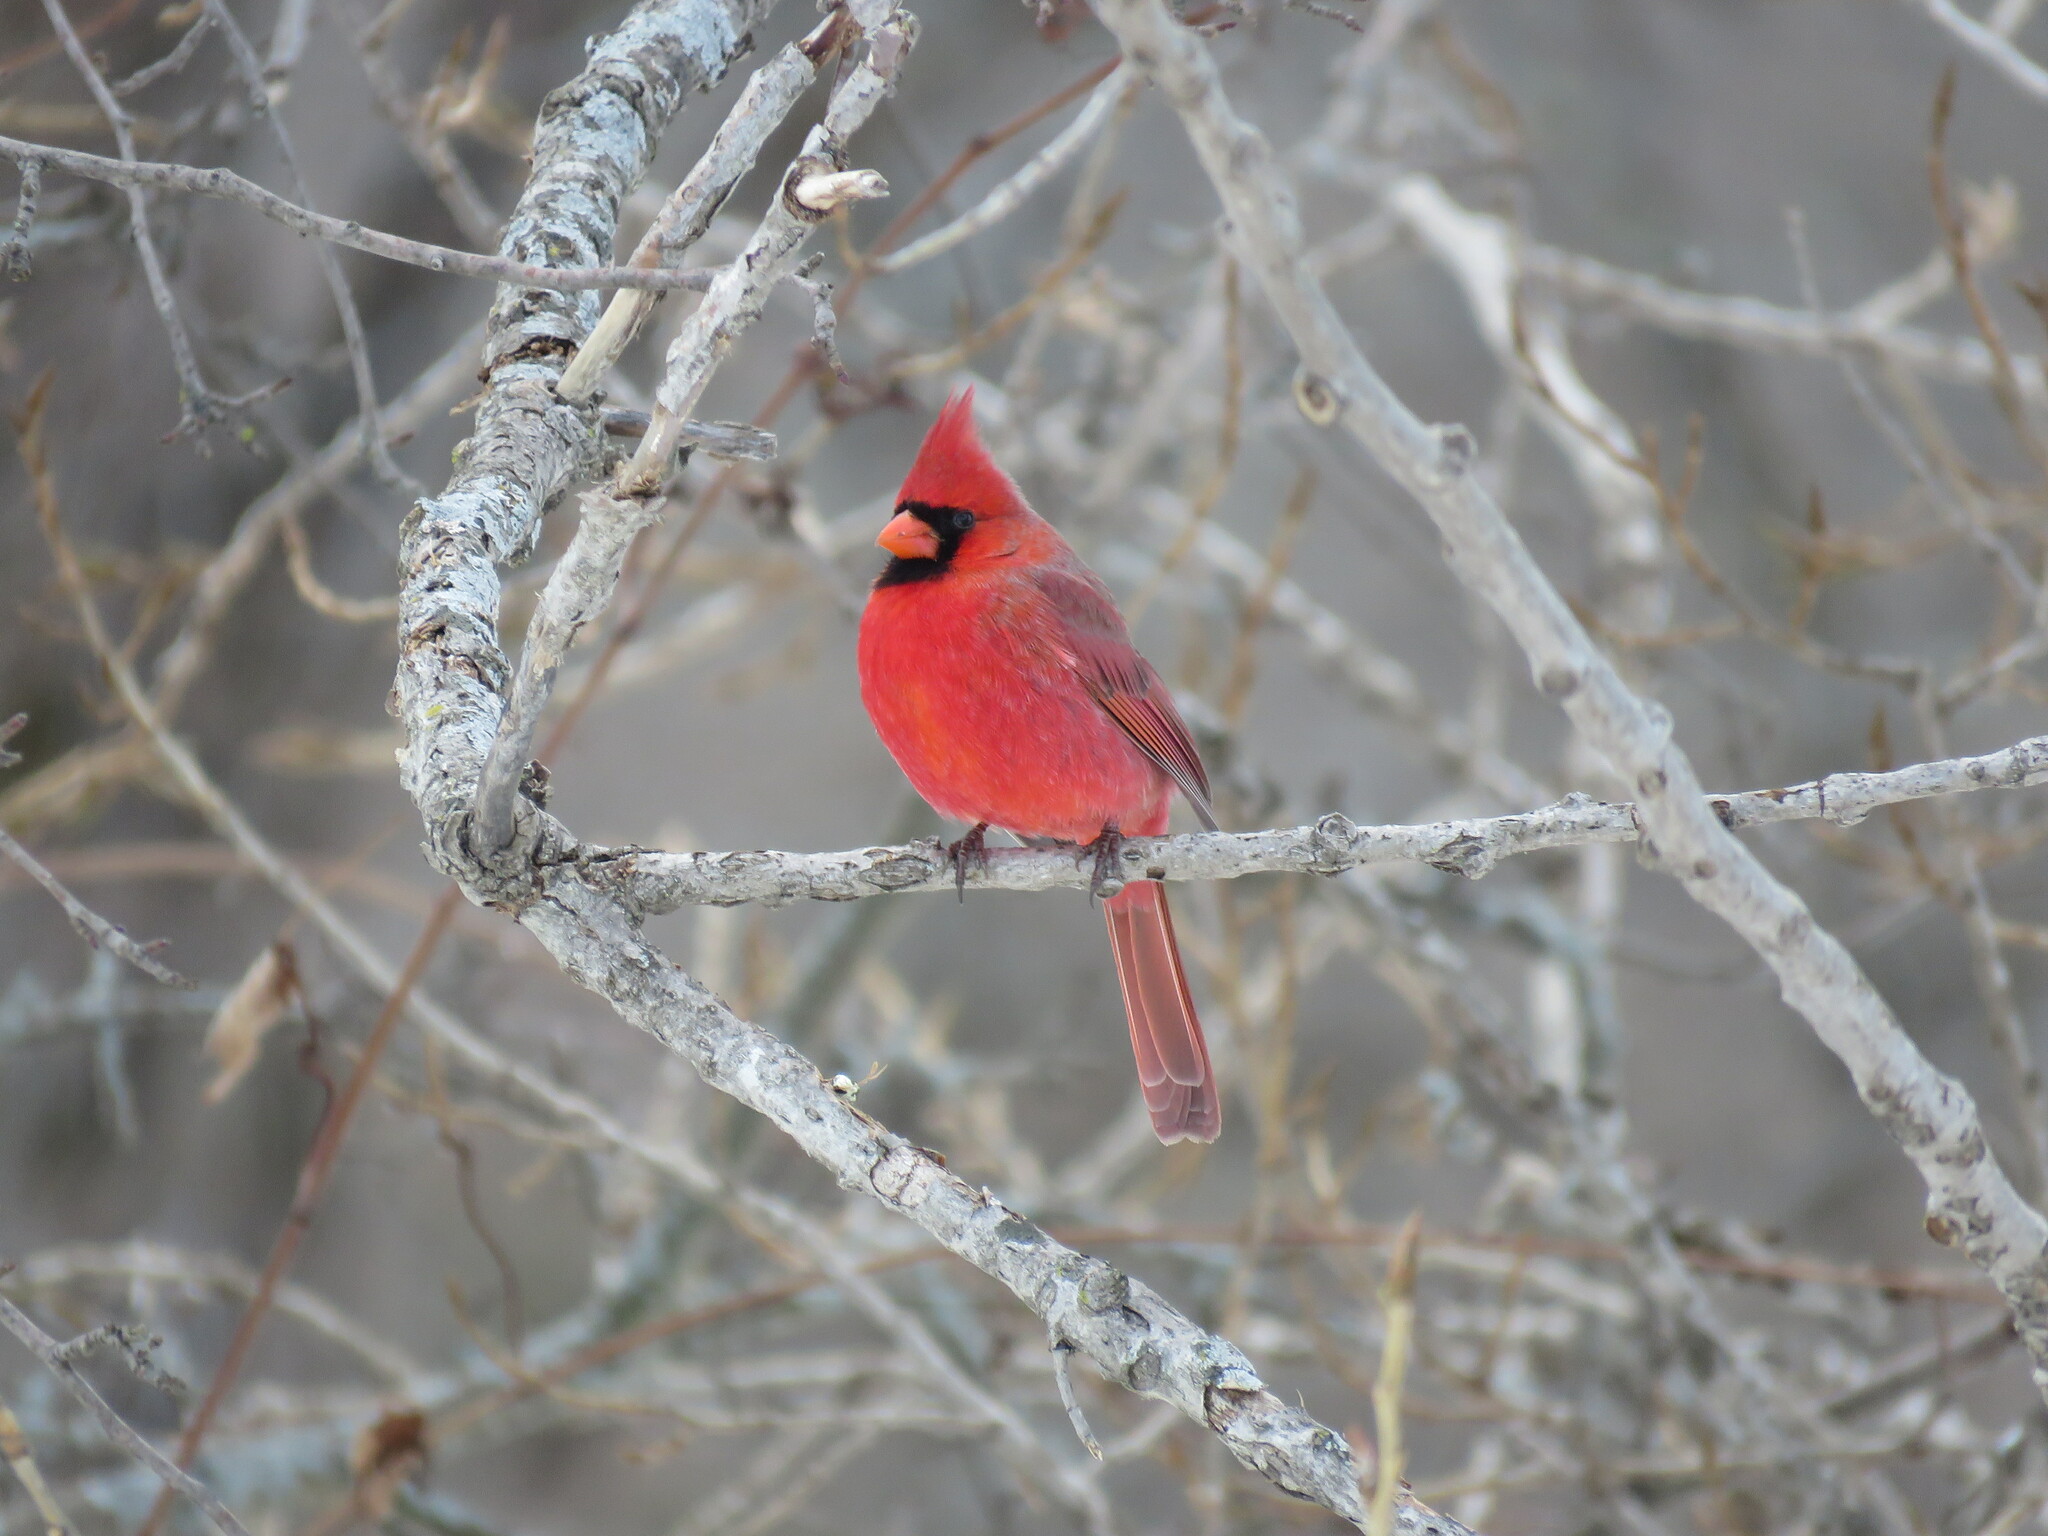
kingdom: Animalia
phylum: Chordata
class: Aves
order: Passeriformes
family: Cardinalidae
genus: Cardinalis
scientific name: Cardinalis cardinalis
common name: Northern cardinal
